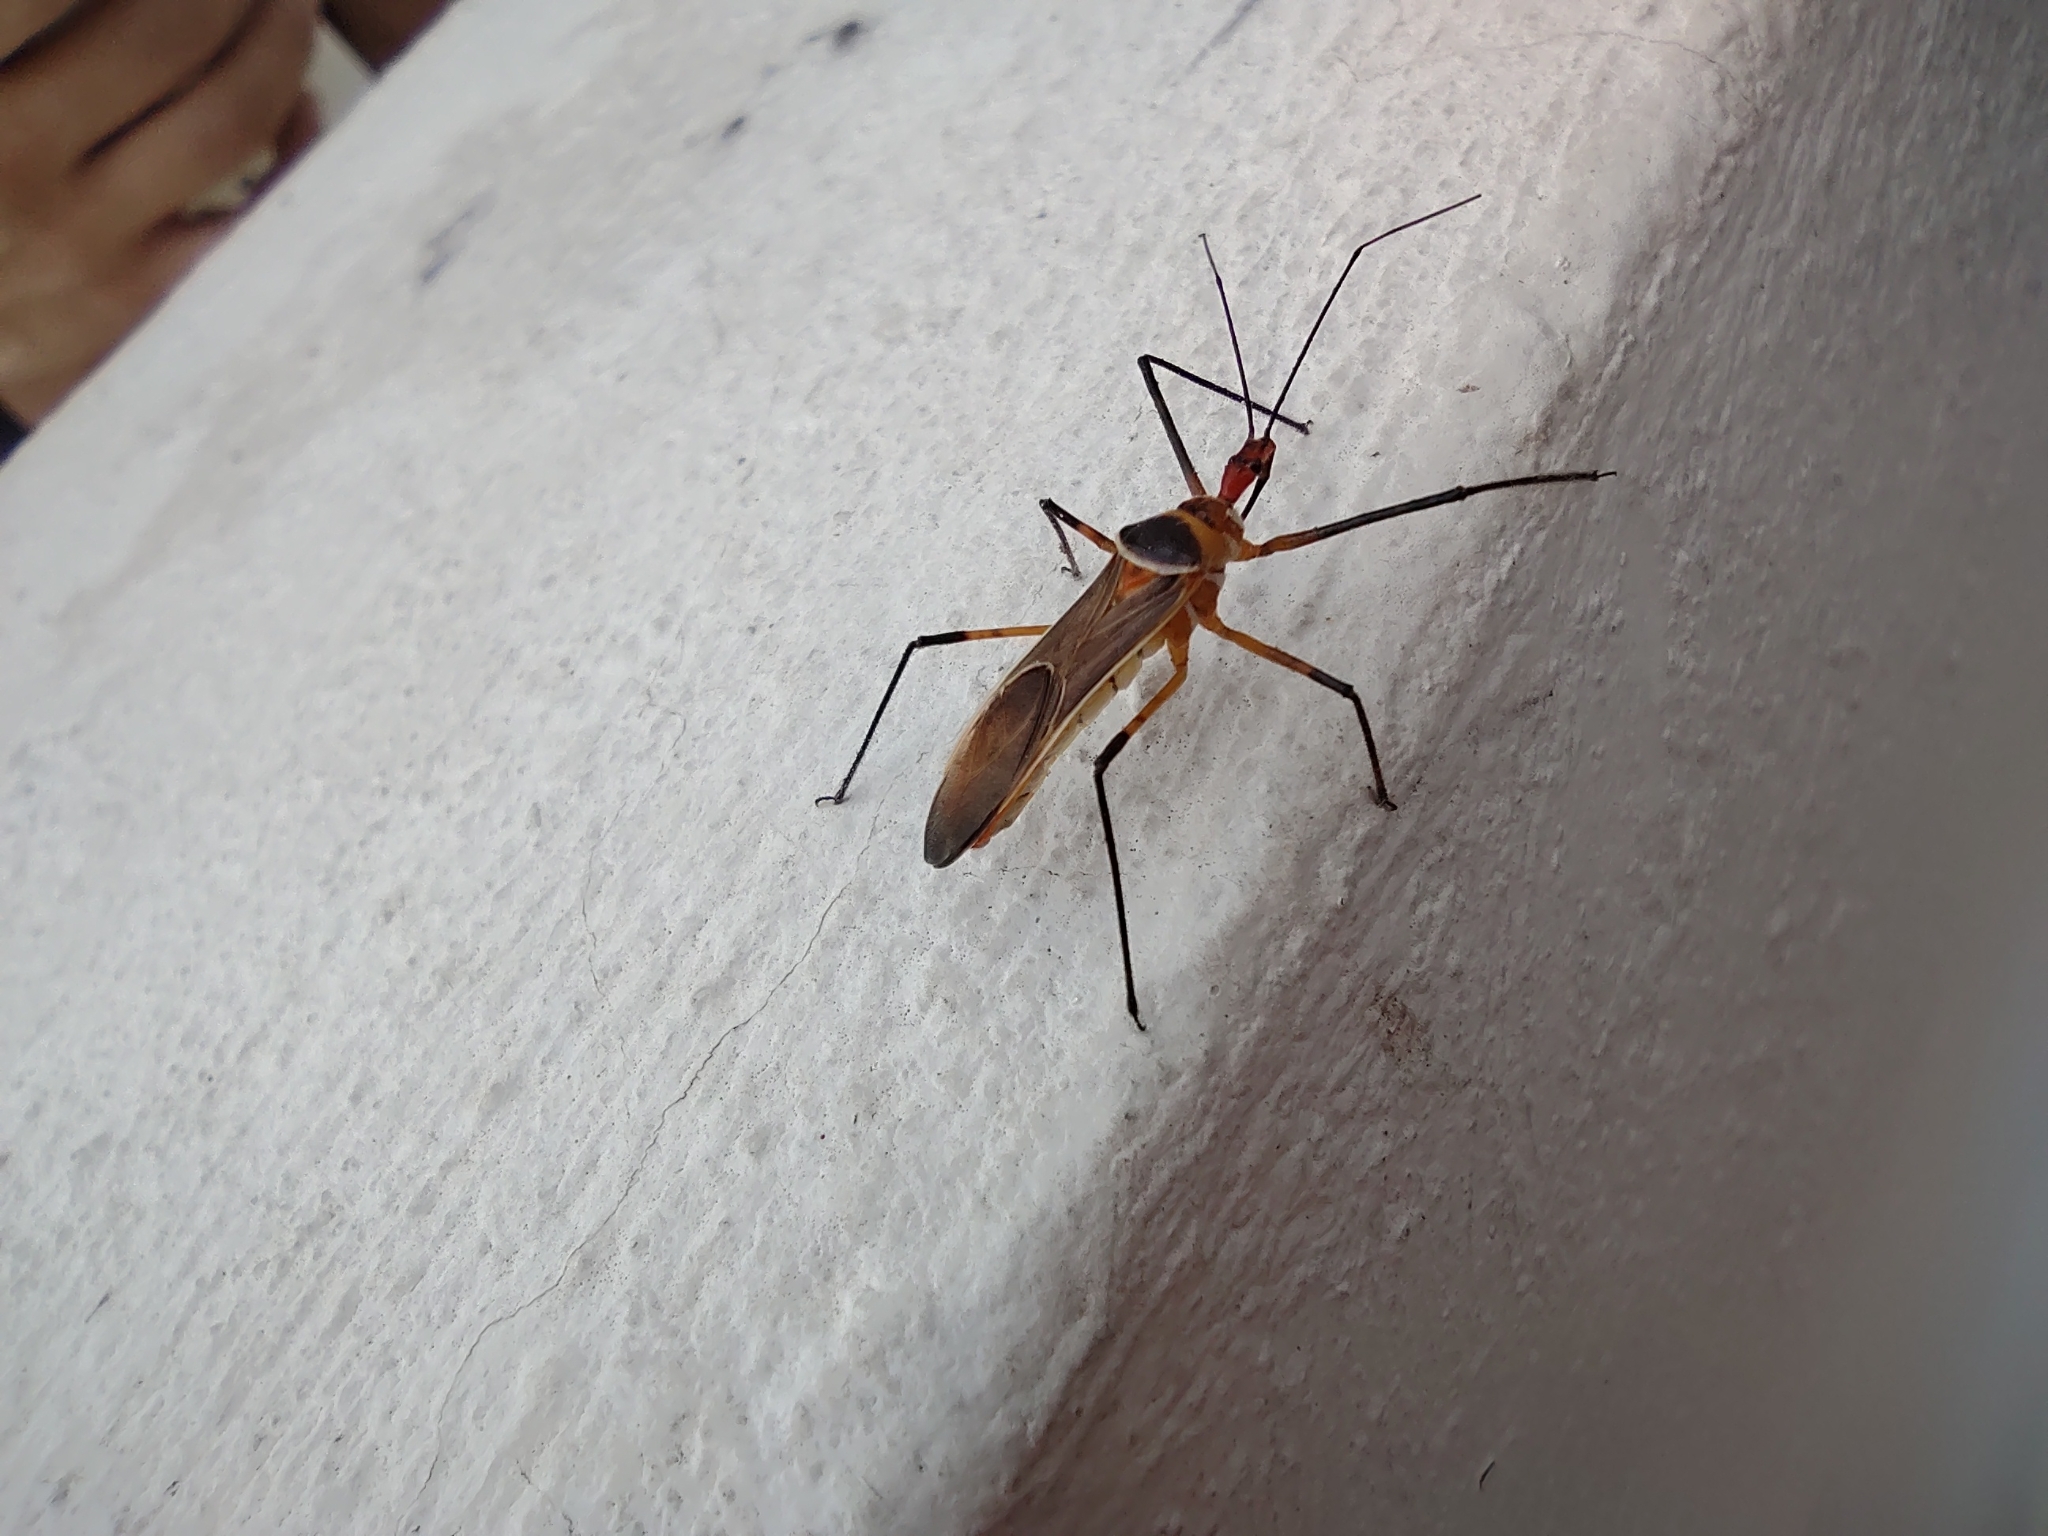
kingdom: Animalia
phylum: Arthropoda
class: Insecta
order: Hemiptera
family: Reduviidae
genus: Zelus
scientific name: Zelus grassans
